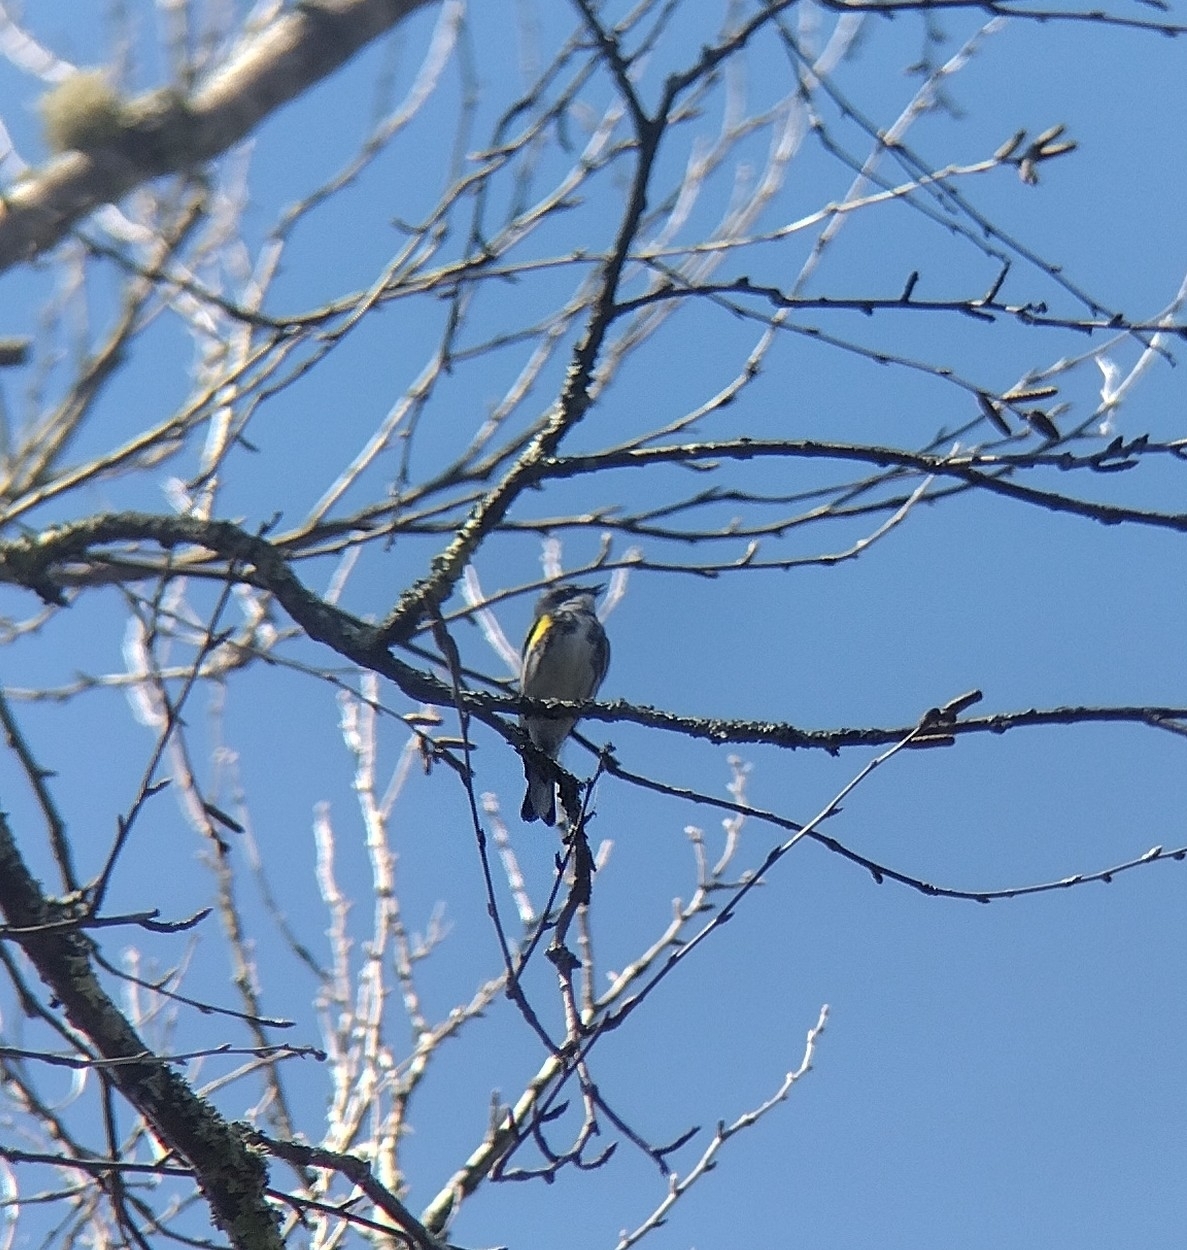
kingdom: Animalia
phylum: Chordata
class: Aves
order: Passeriformes
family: Parulidae
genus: Setophaga
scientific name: Setophaga coronata
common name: Myrtle warbler
